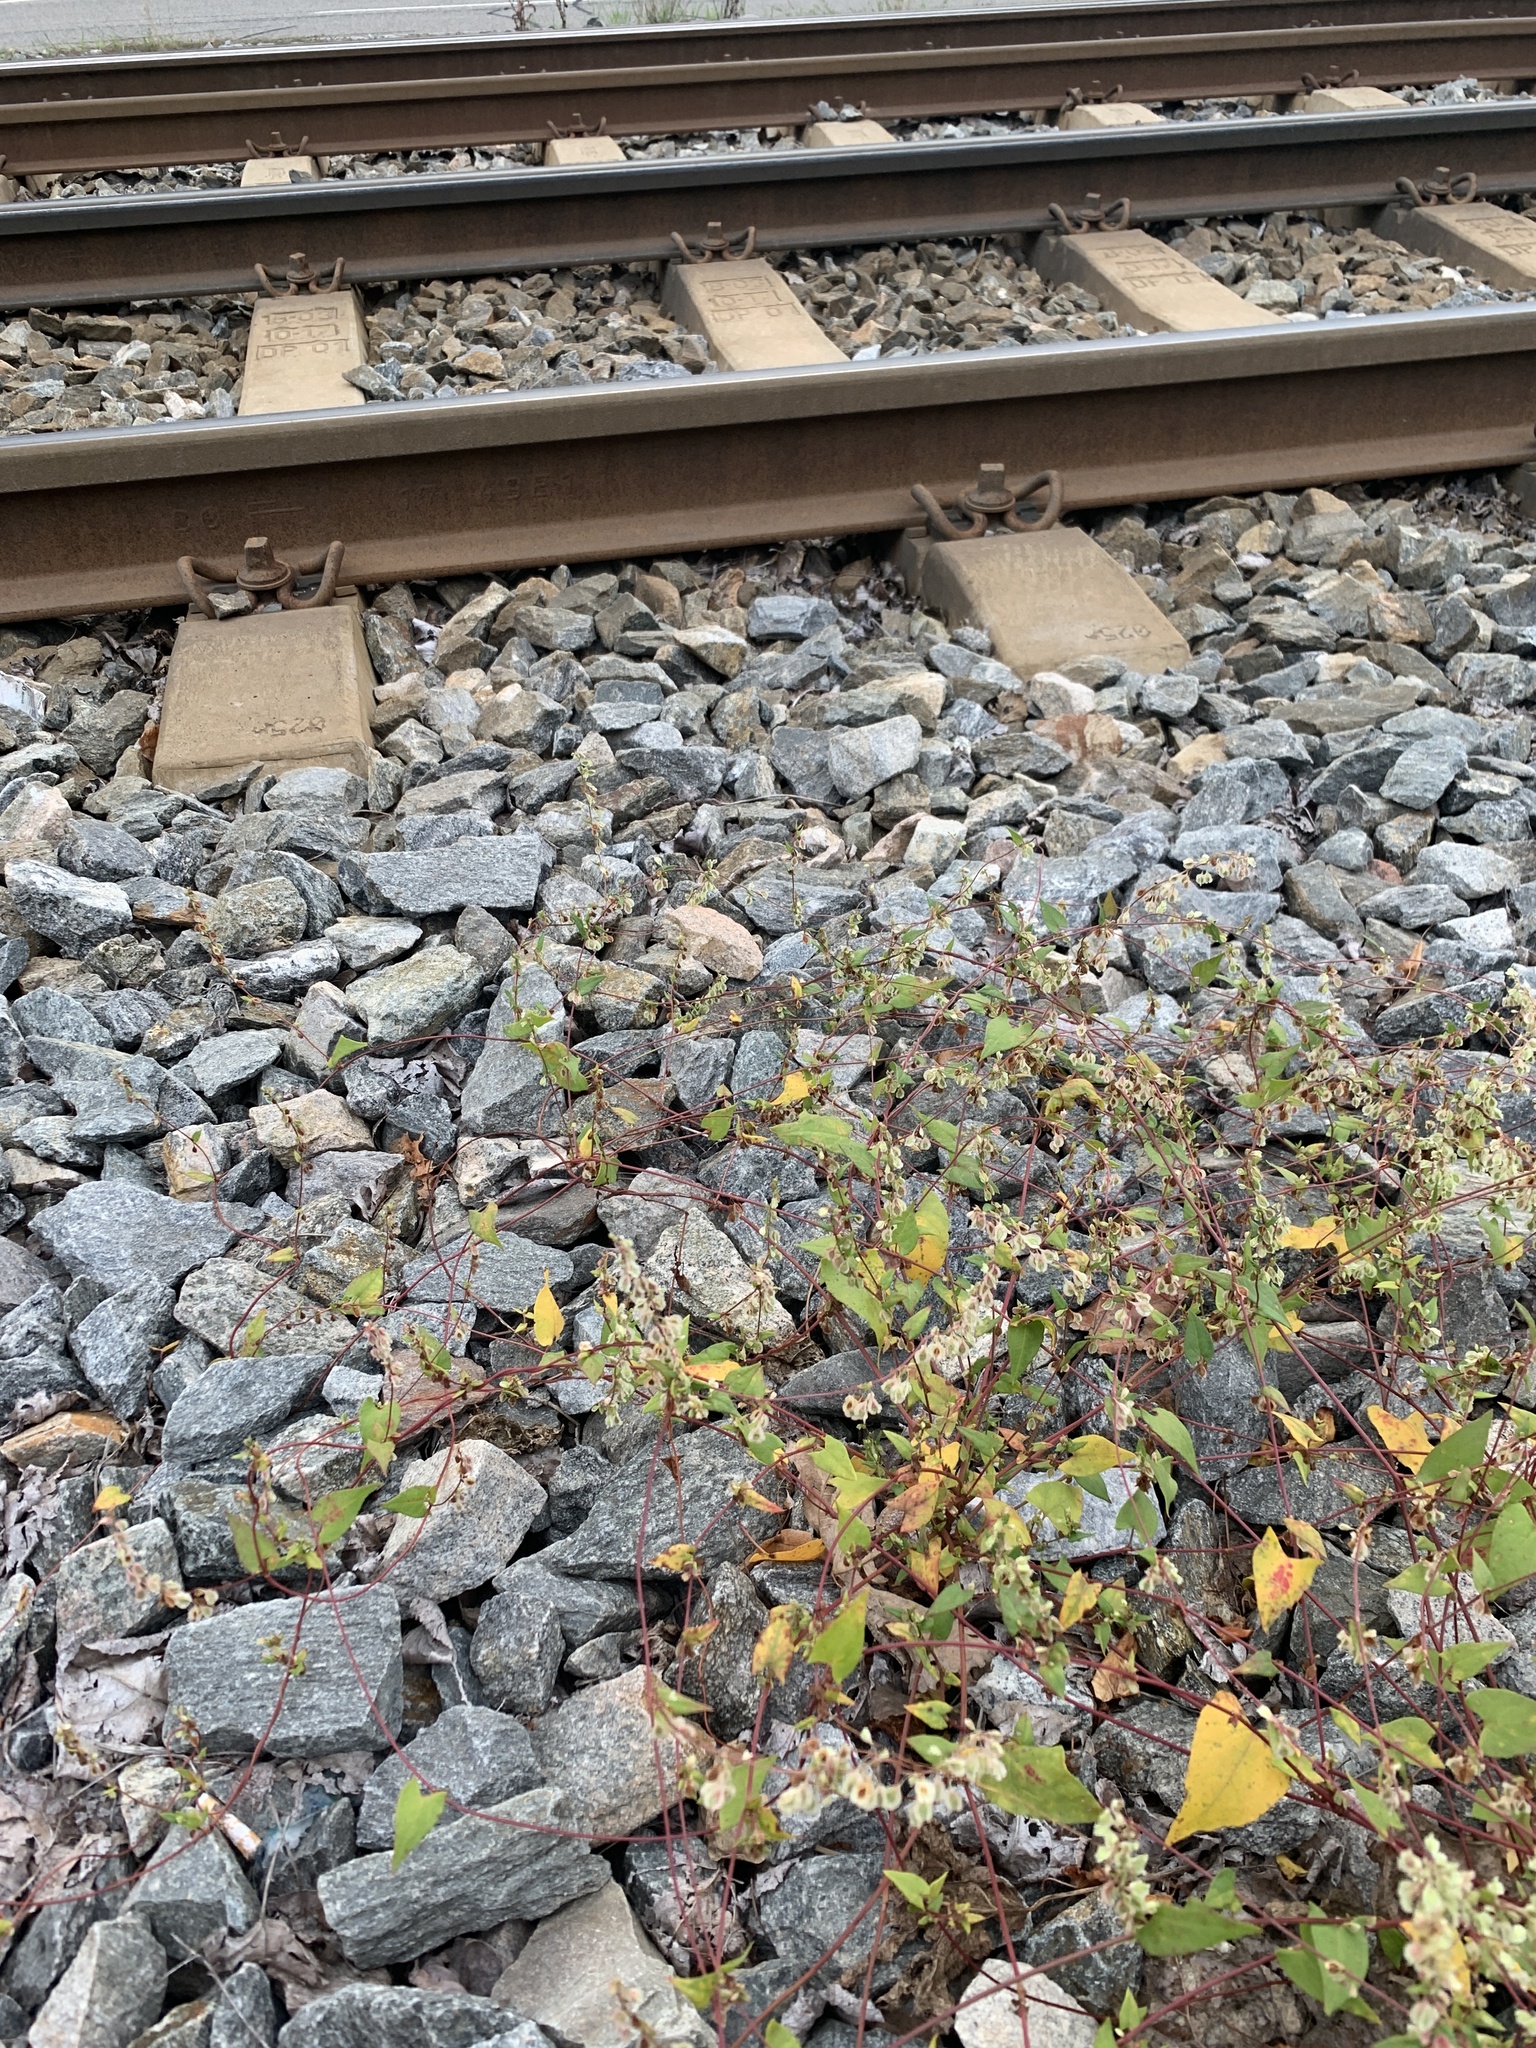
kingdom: Plantae
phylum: Tracheophyta
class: Magnoliopsida
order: Caryophyllales
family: Polygonaceae
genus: Fallopia
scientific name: Fallopia dumetorum
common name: Copse-bindweed
